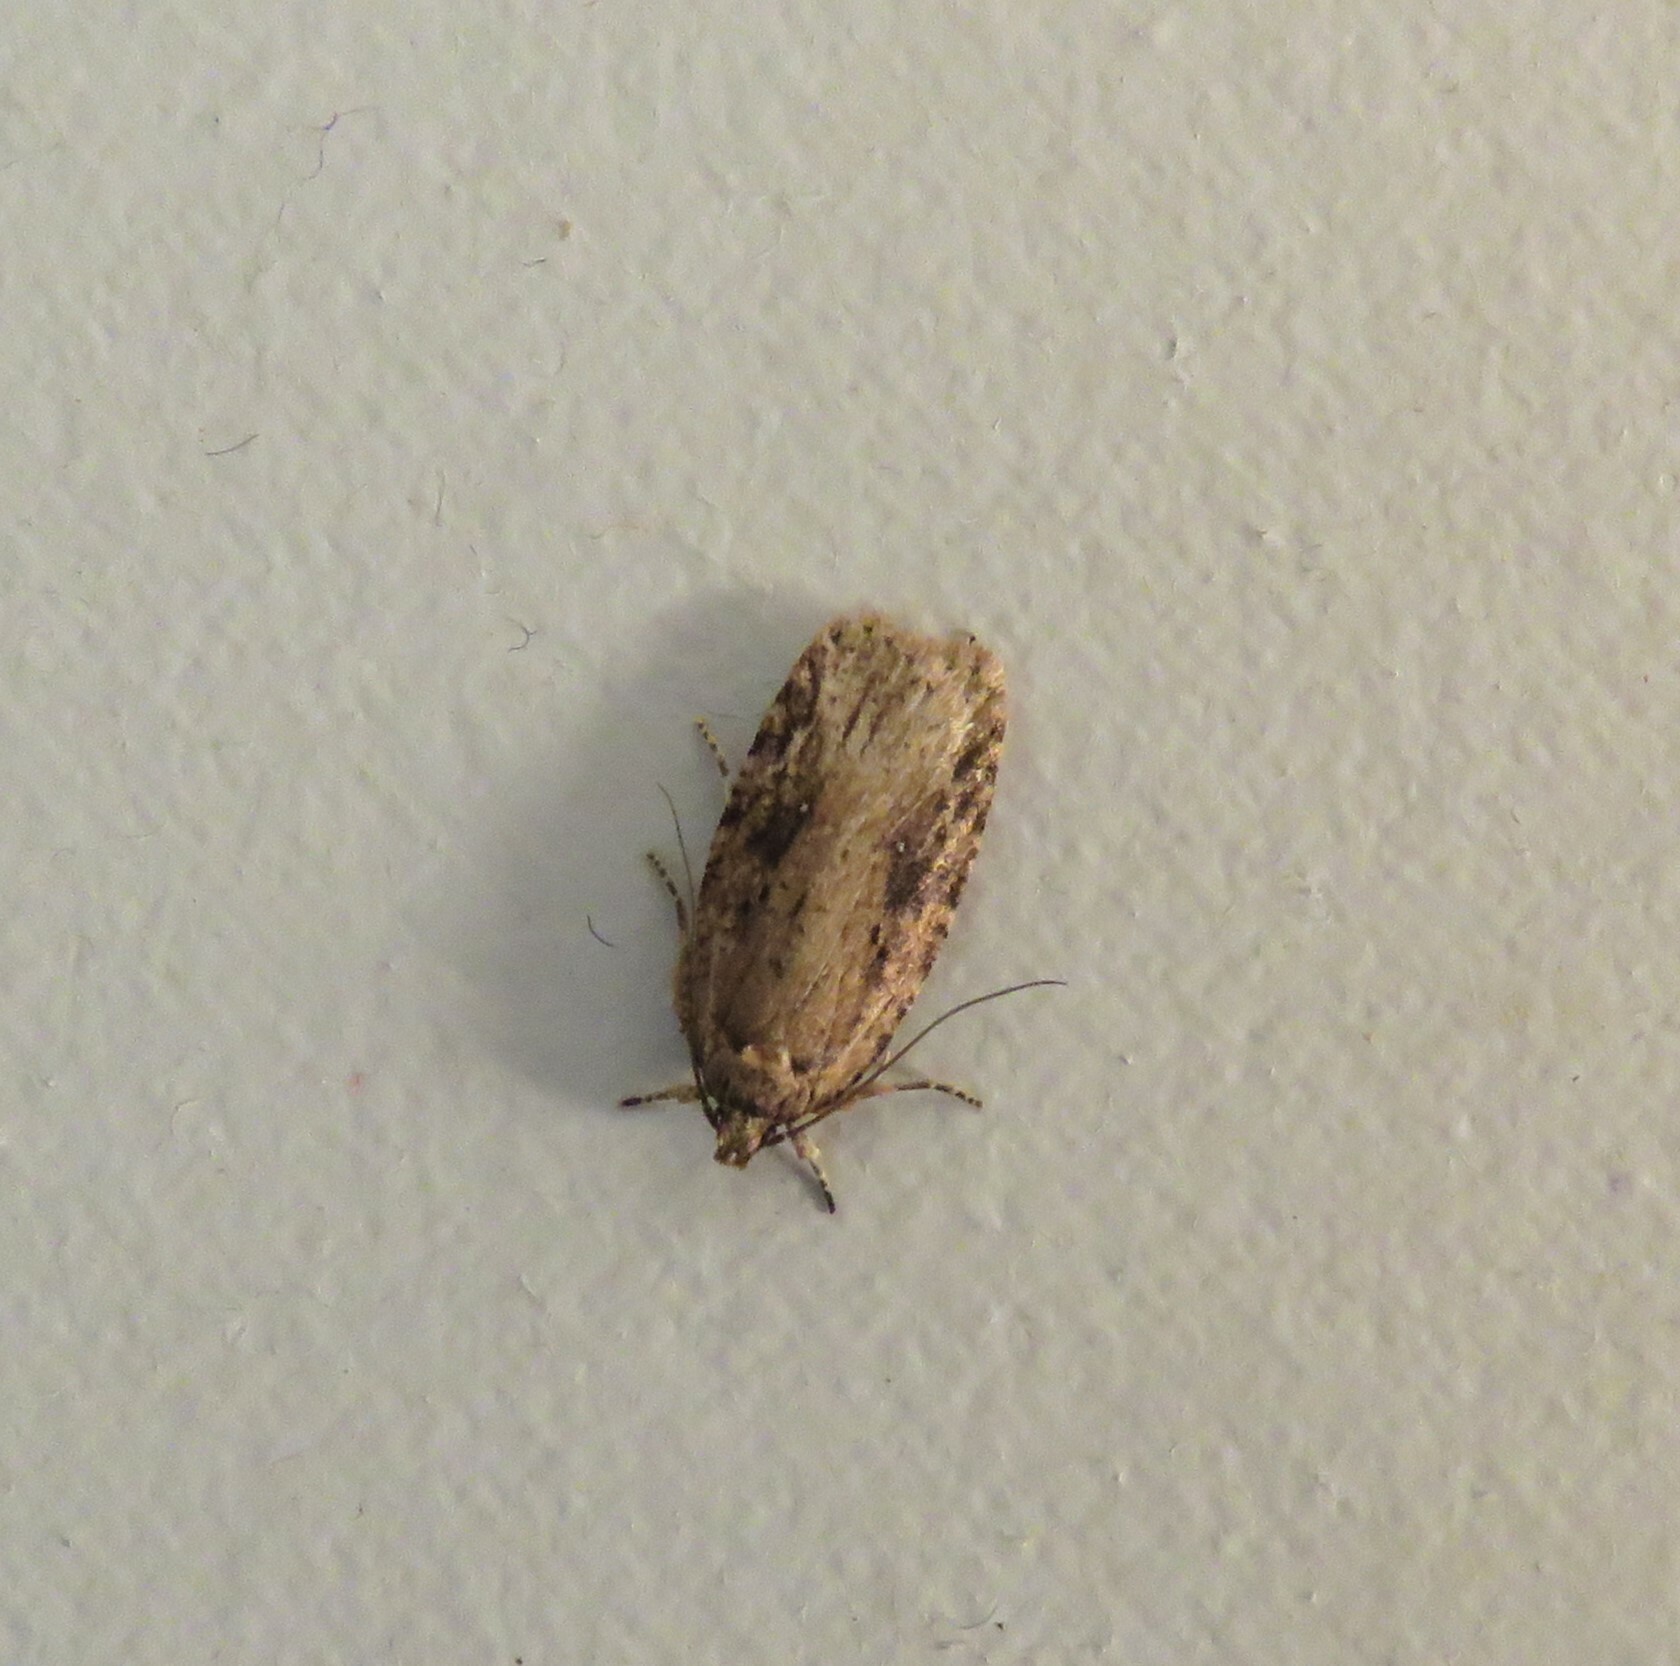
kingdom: Animalia
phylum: Arthropoda
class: Insecta
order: Lepidoptera
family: Depressariidae
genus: Agonopterix
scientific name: Agonopterix pulvipennella
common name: Goldenrod leafffolder
